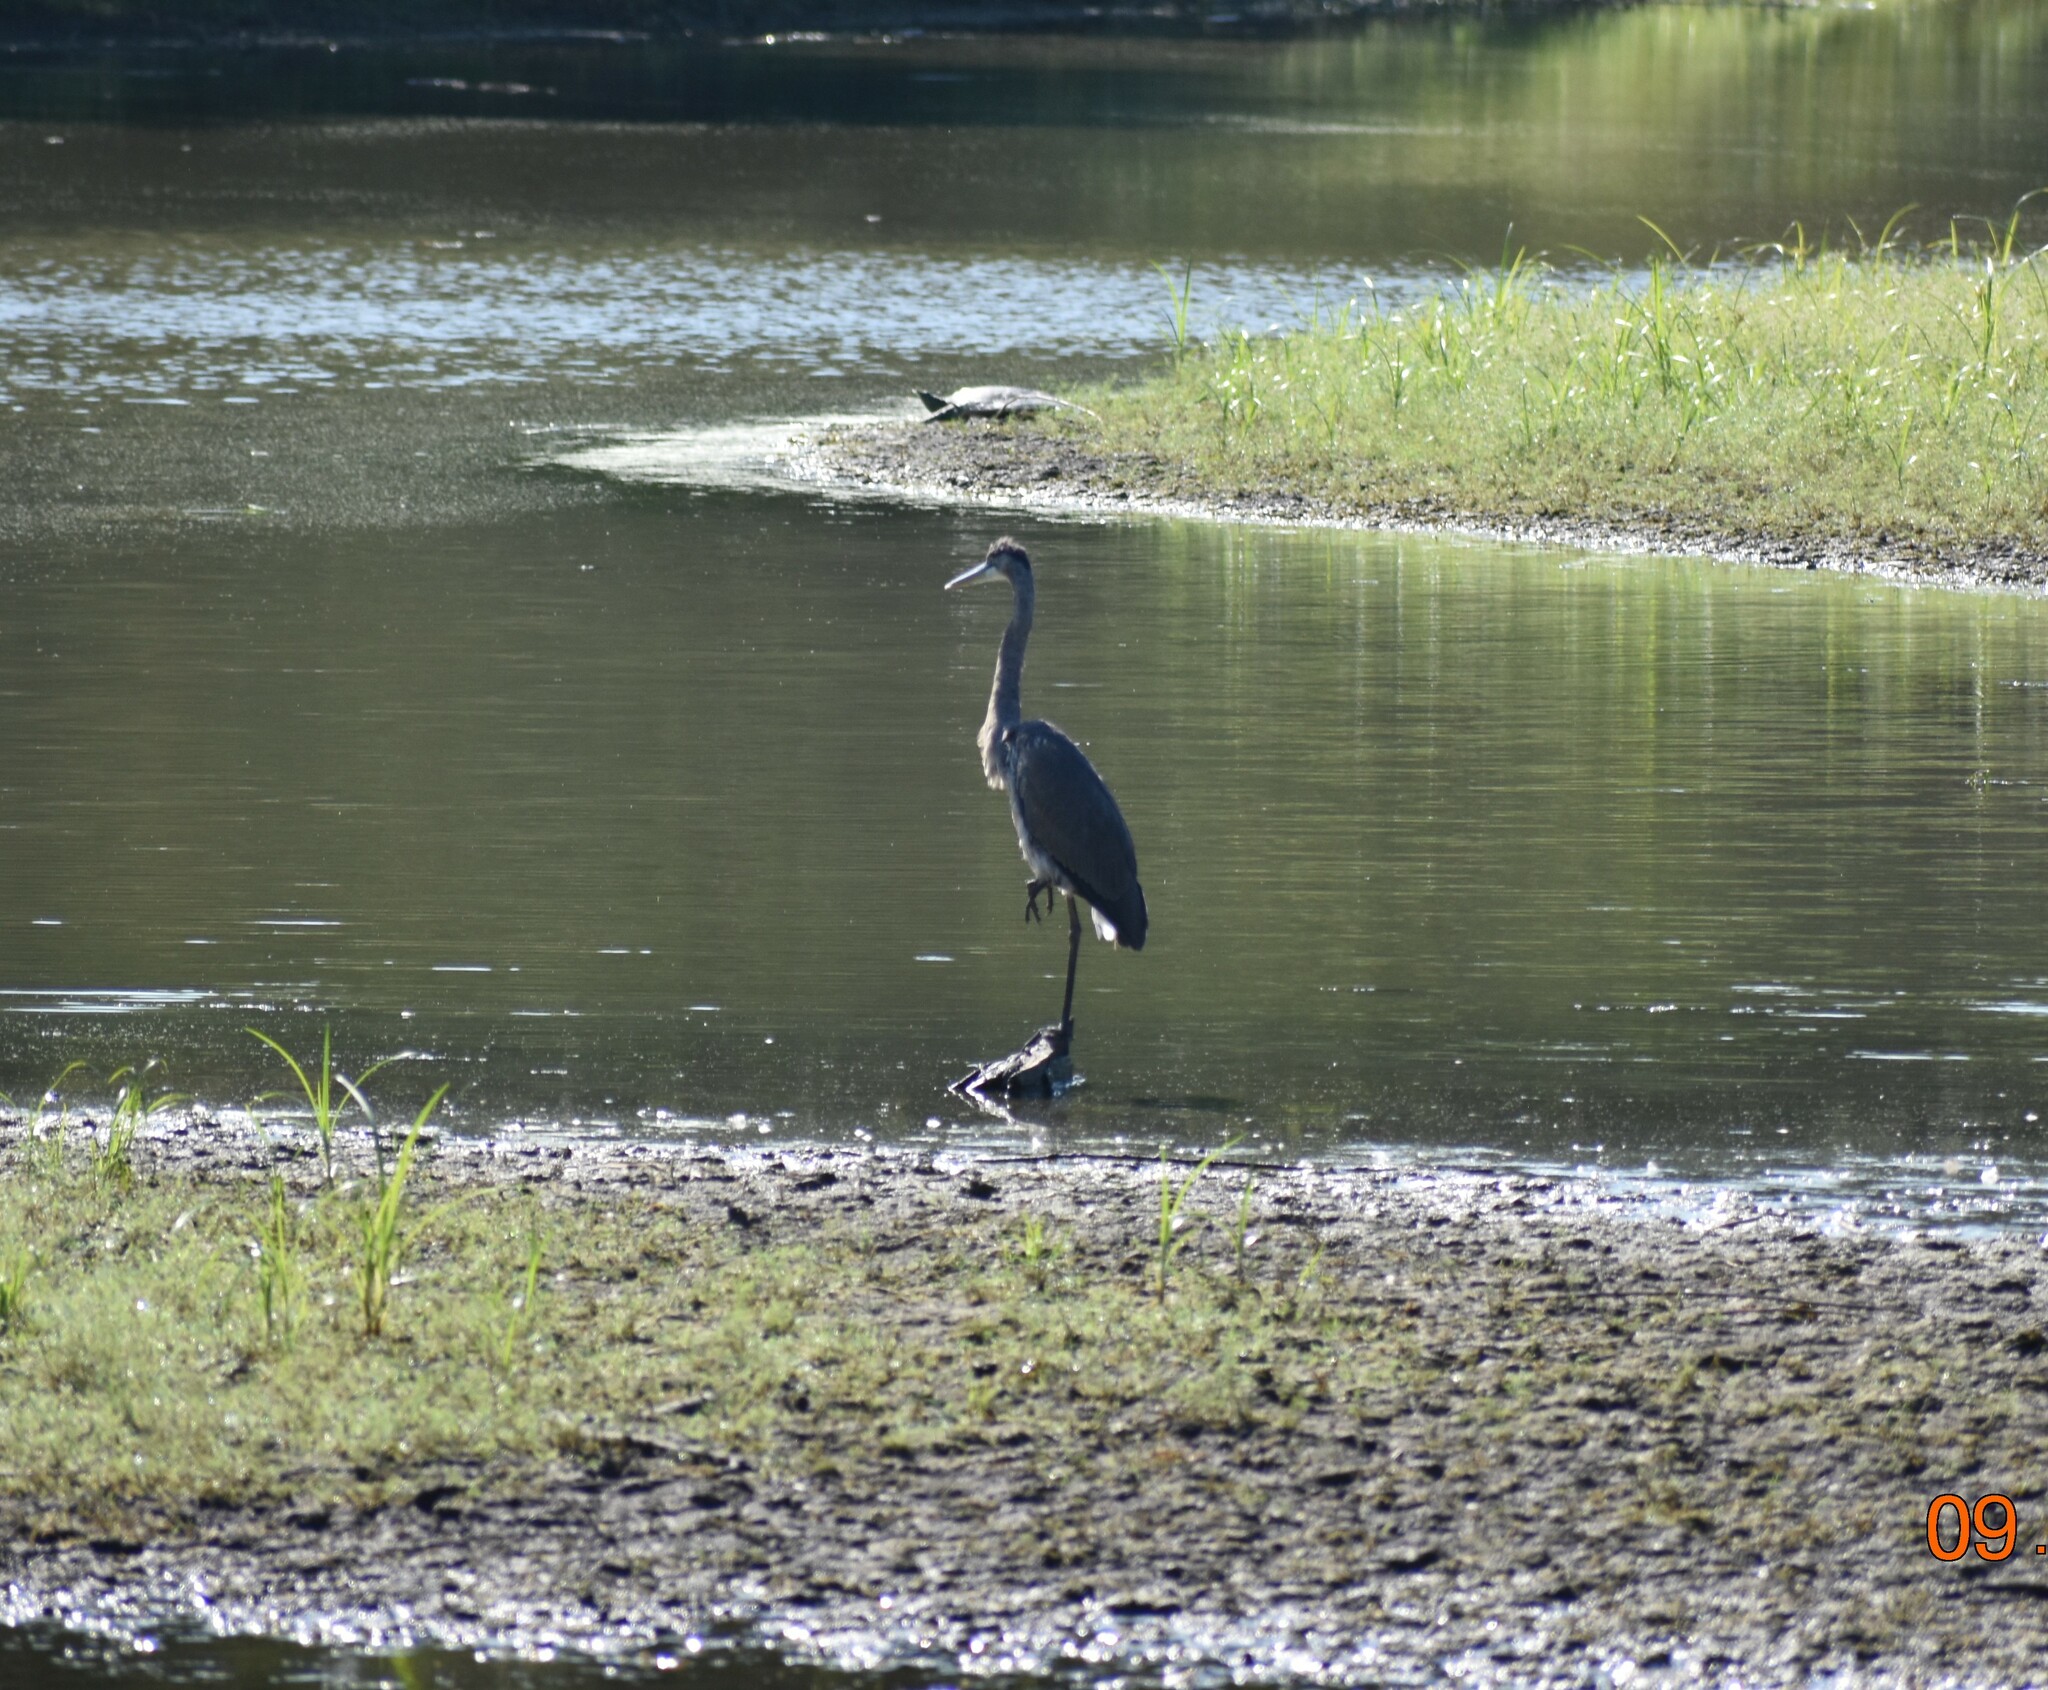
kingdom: Animalia
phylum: Chordata
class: Aves
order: Pelecaniformes
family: Ardeidae
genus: Ardea
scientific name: Ardea herodias
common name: Great blue heron
